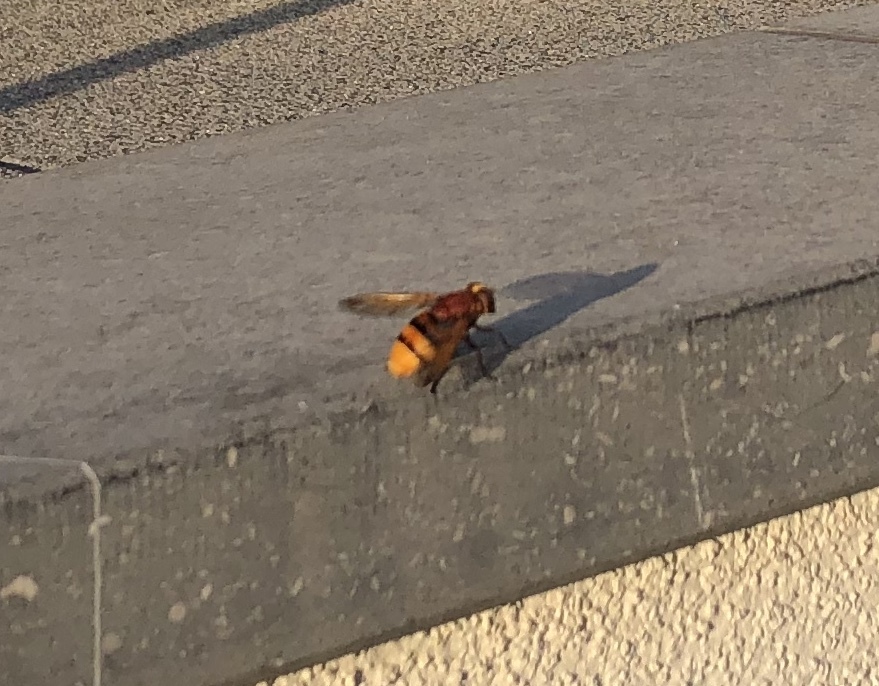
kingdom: Animalia
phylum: Arthropoda
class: Insecta
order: Diptera
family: Syrphidae
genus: Volucella
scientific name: Volucella zonaria
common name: Hornet hoverfly
